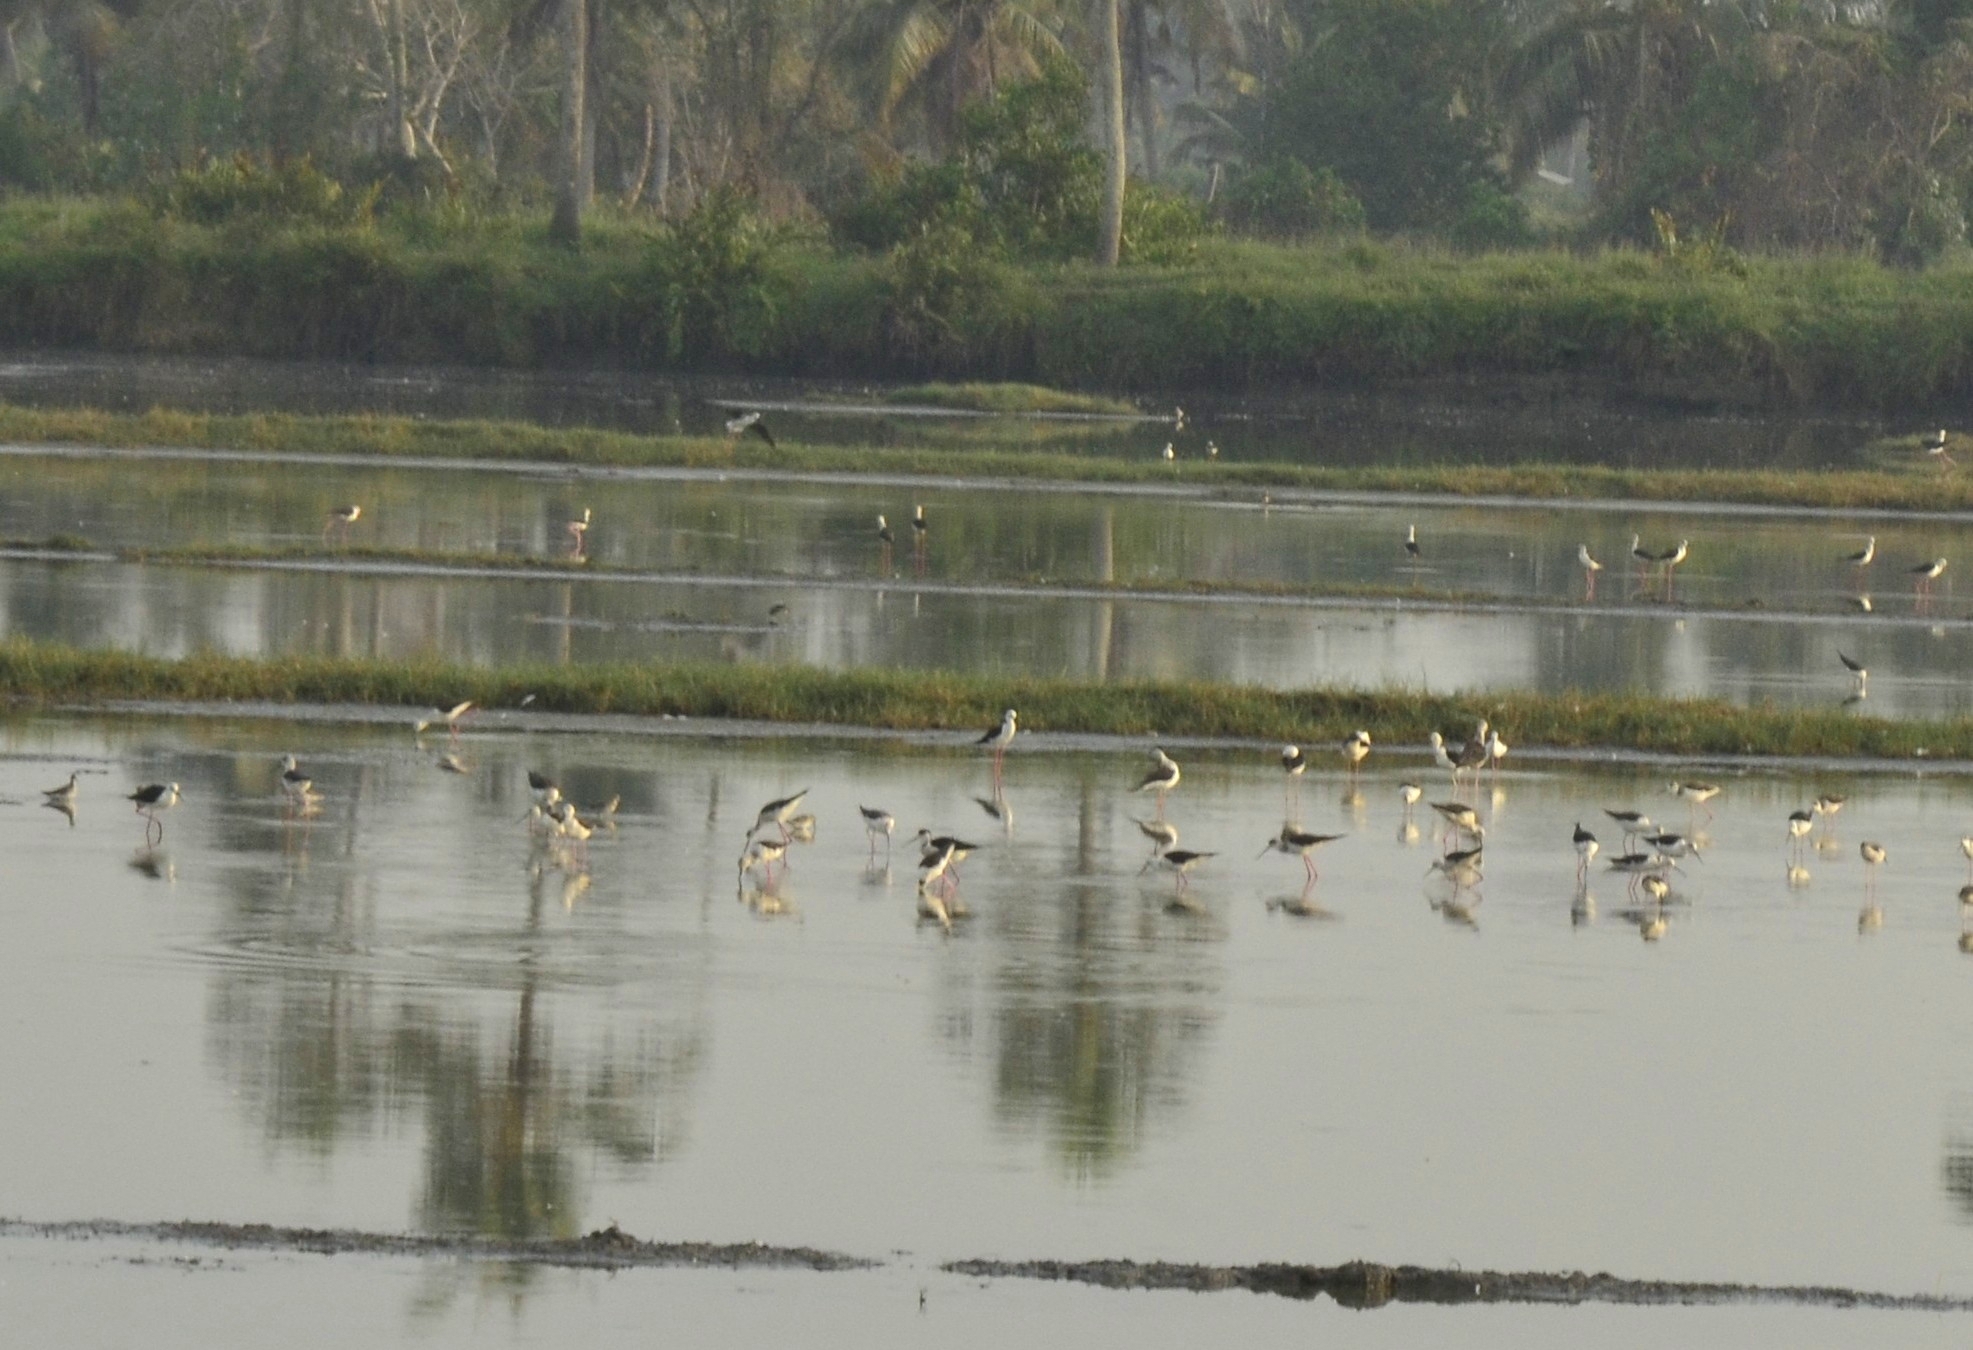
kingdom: Animalia
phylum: Chordata
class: Aves
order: Charadriiformes
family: Recurvirostridae
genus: Himantopus
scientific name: Himantopus himantopus
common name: Black-winged stilt
